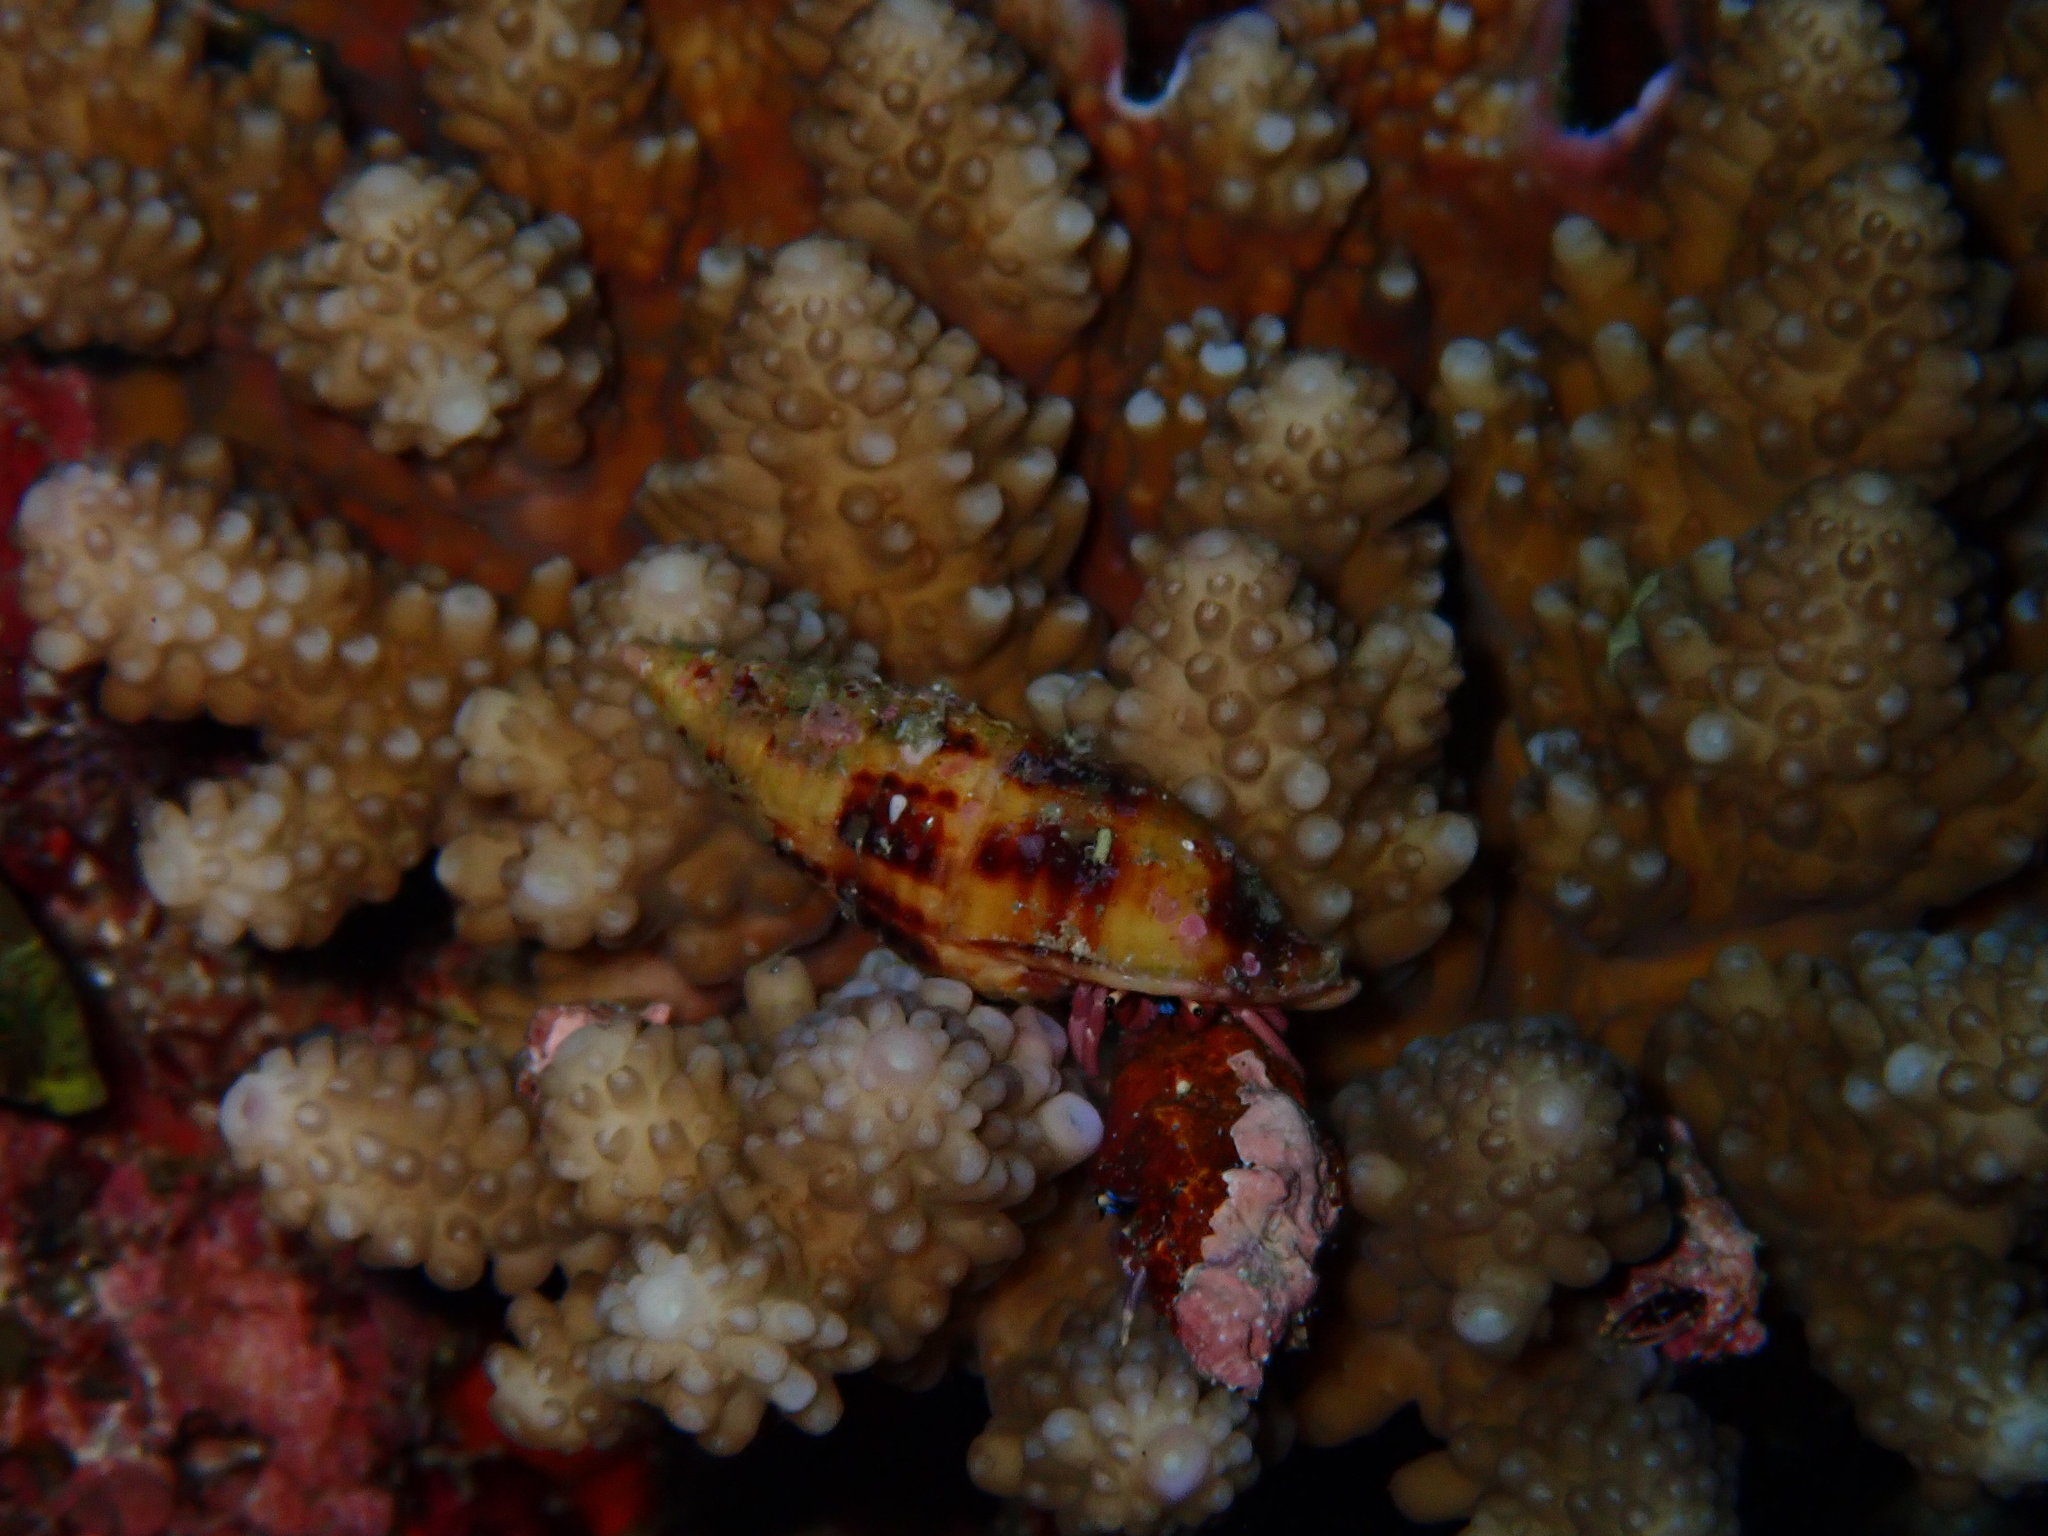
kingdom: Animalia
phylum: Arthropoda
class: Malacostraca
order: Decapoda
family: Diogenidae
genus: Calcinus
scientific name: Calcinus rosaceus
